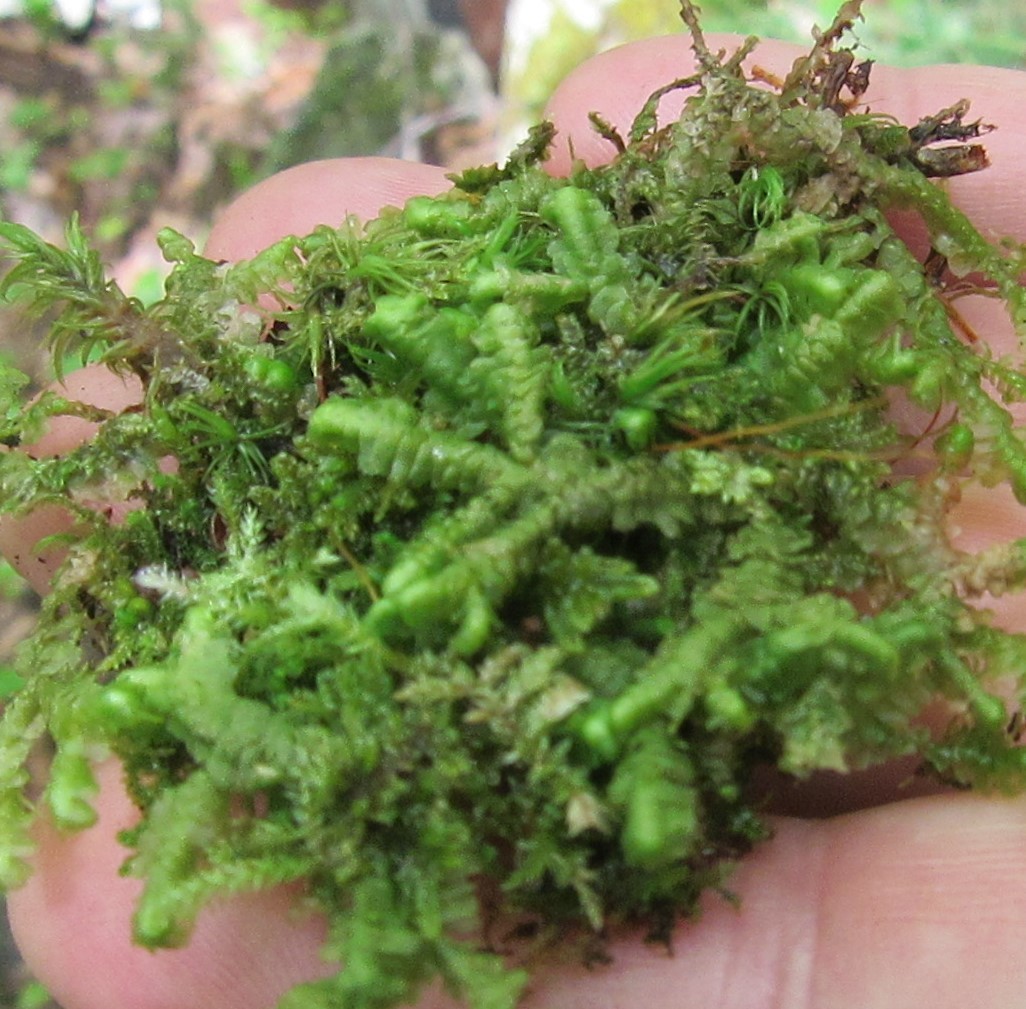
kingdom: Plantae
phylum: Marchantiophyta
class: Jungermanniopsida
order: Jungermanniales
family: Lepidoziaceae
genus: Bazzania
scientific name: Bazzania trilobata
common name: Three-lobed whipwort
